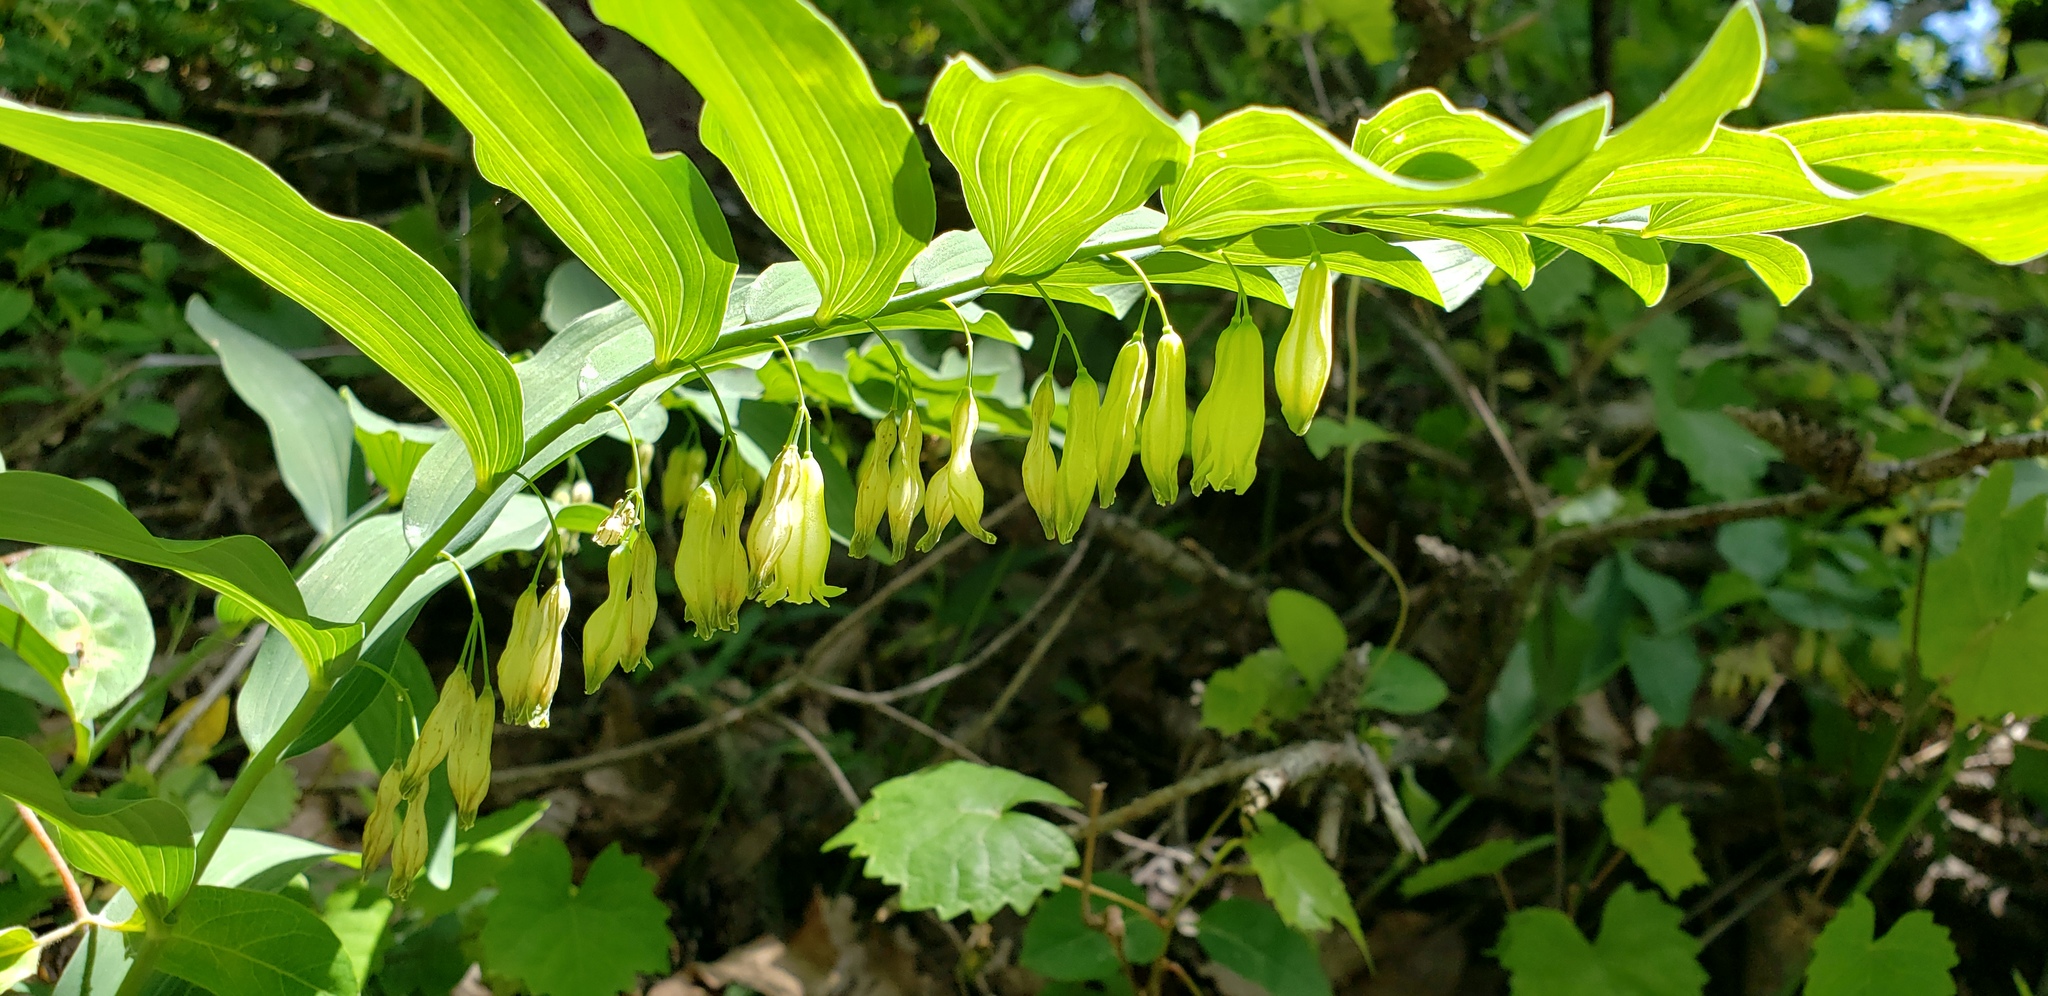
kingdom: Plantae
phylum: Tracheophyta
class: Liliopsida
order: Asparagales
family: Asparagaceae
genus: Polygonatum
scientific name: Polygonatum biflorum
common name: American solomon's-seal
